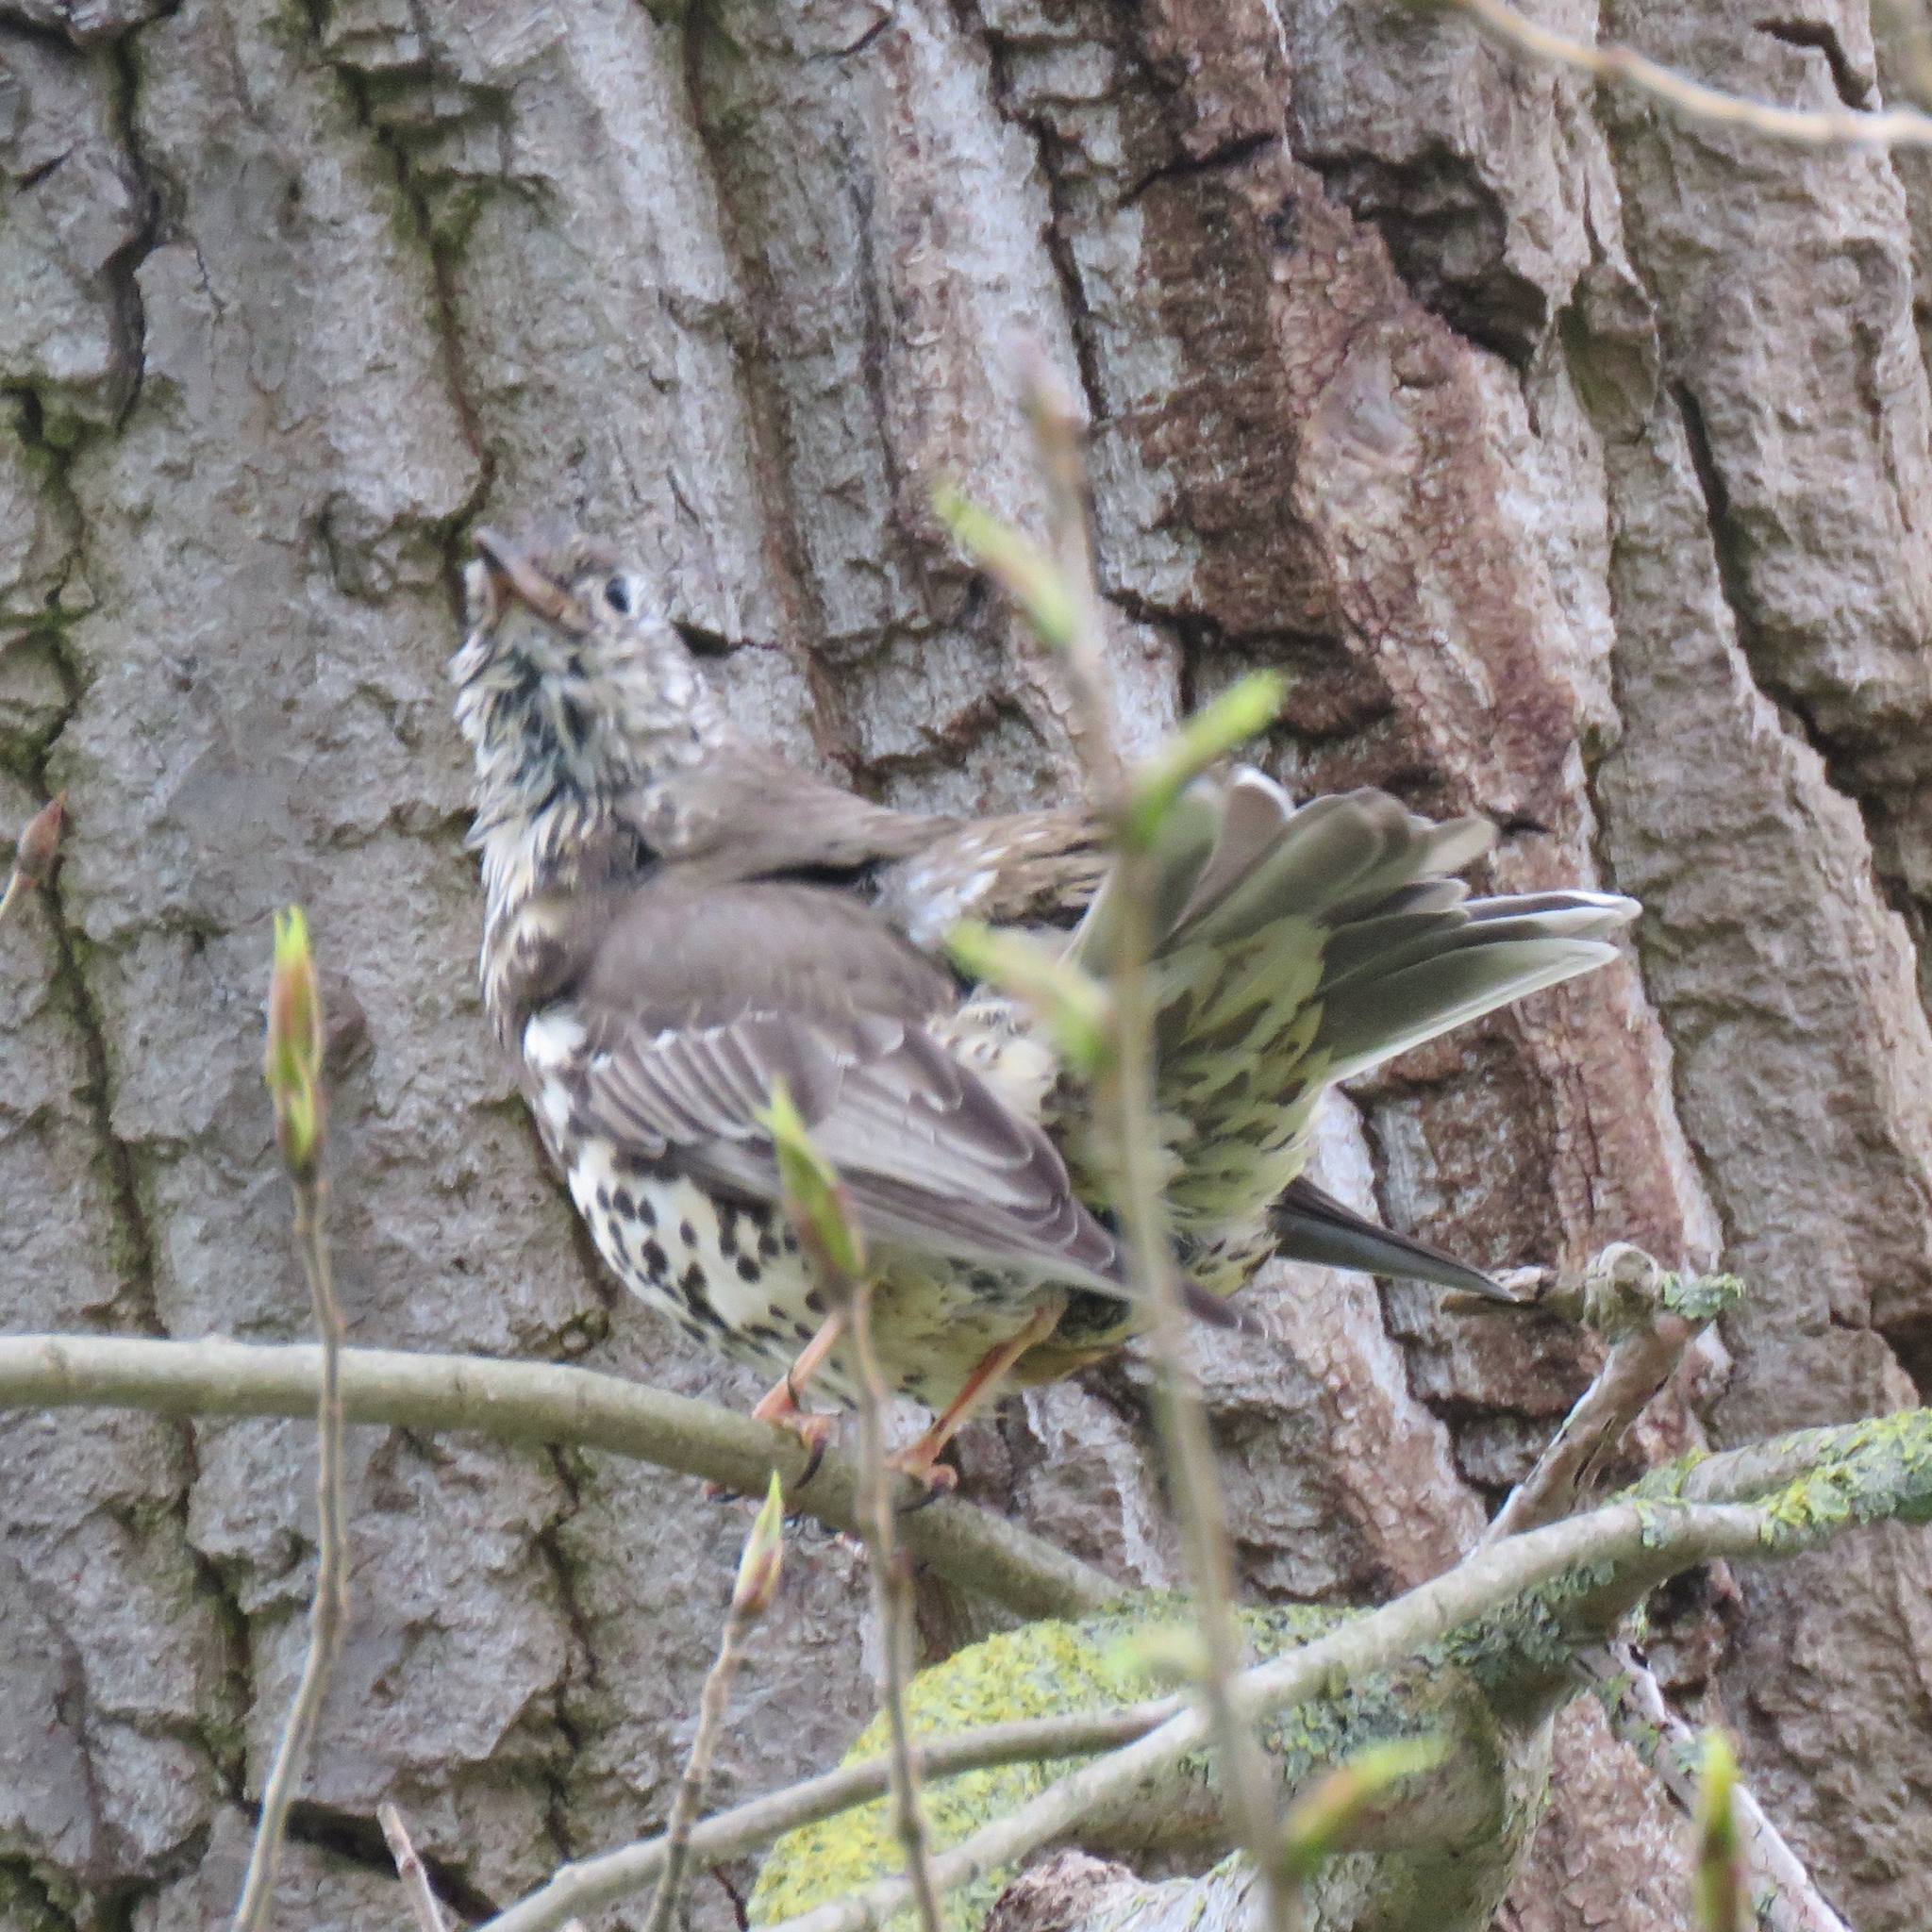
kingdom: Animalia
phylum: Chordata
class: Aves
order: Passeriformes
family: Turdidae
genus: Turdus
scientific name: Turdus viscivorus
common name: Mistle thrush
